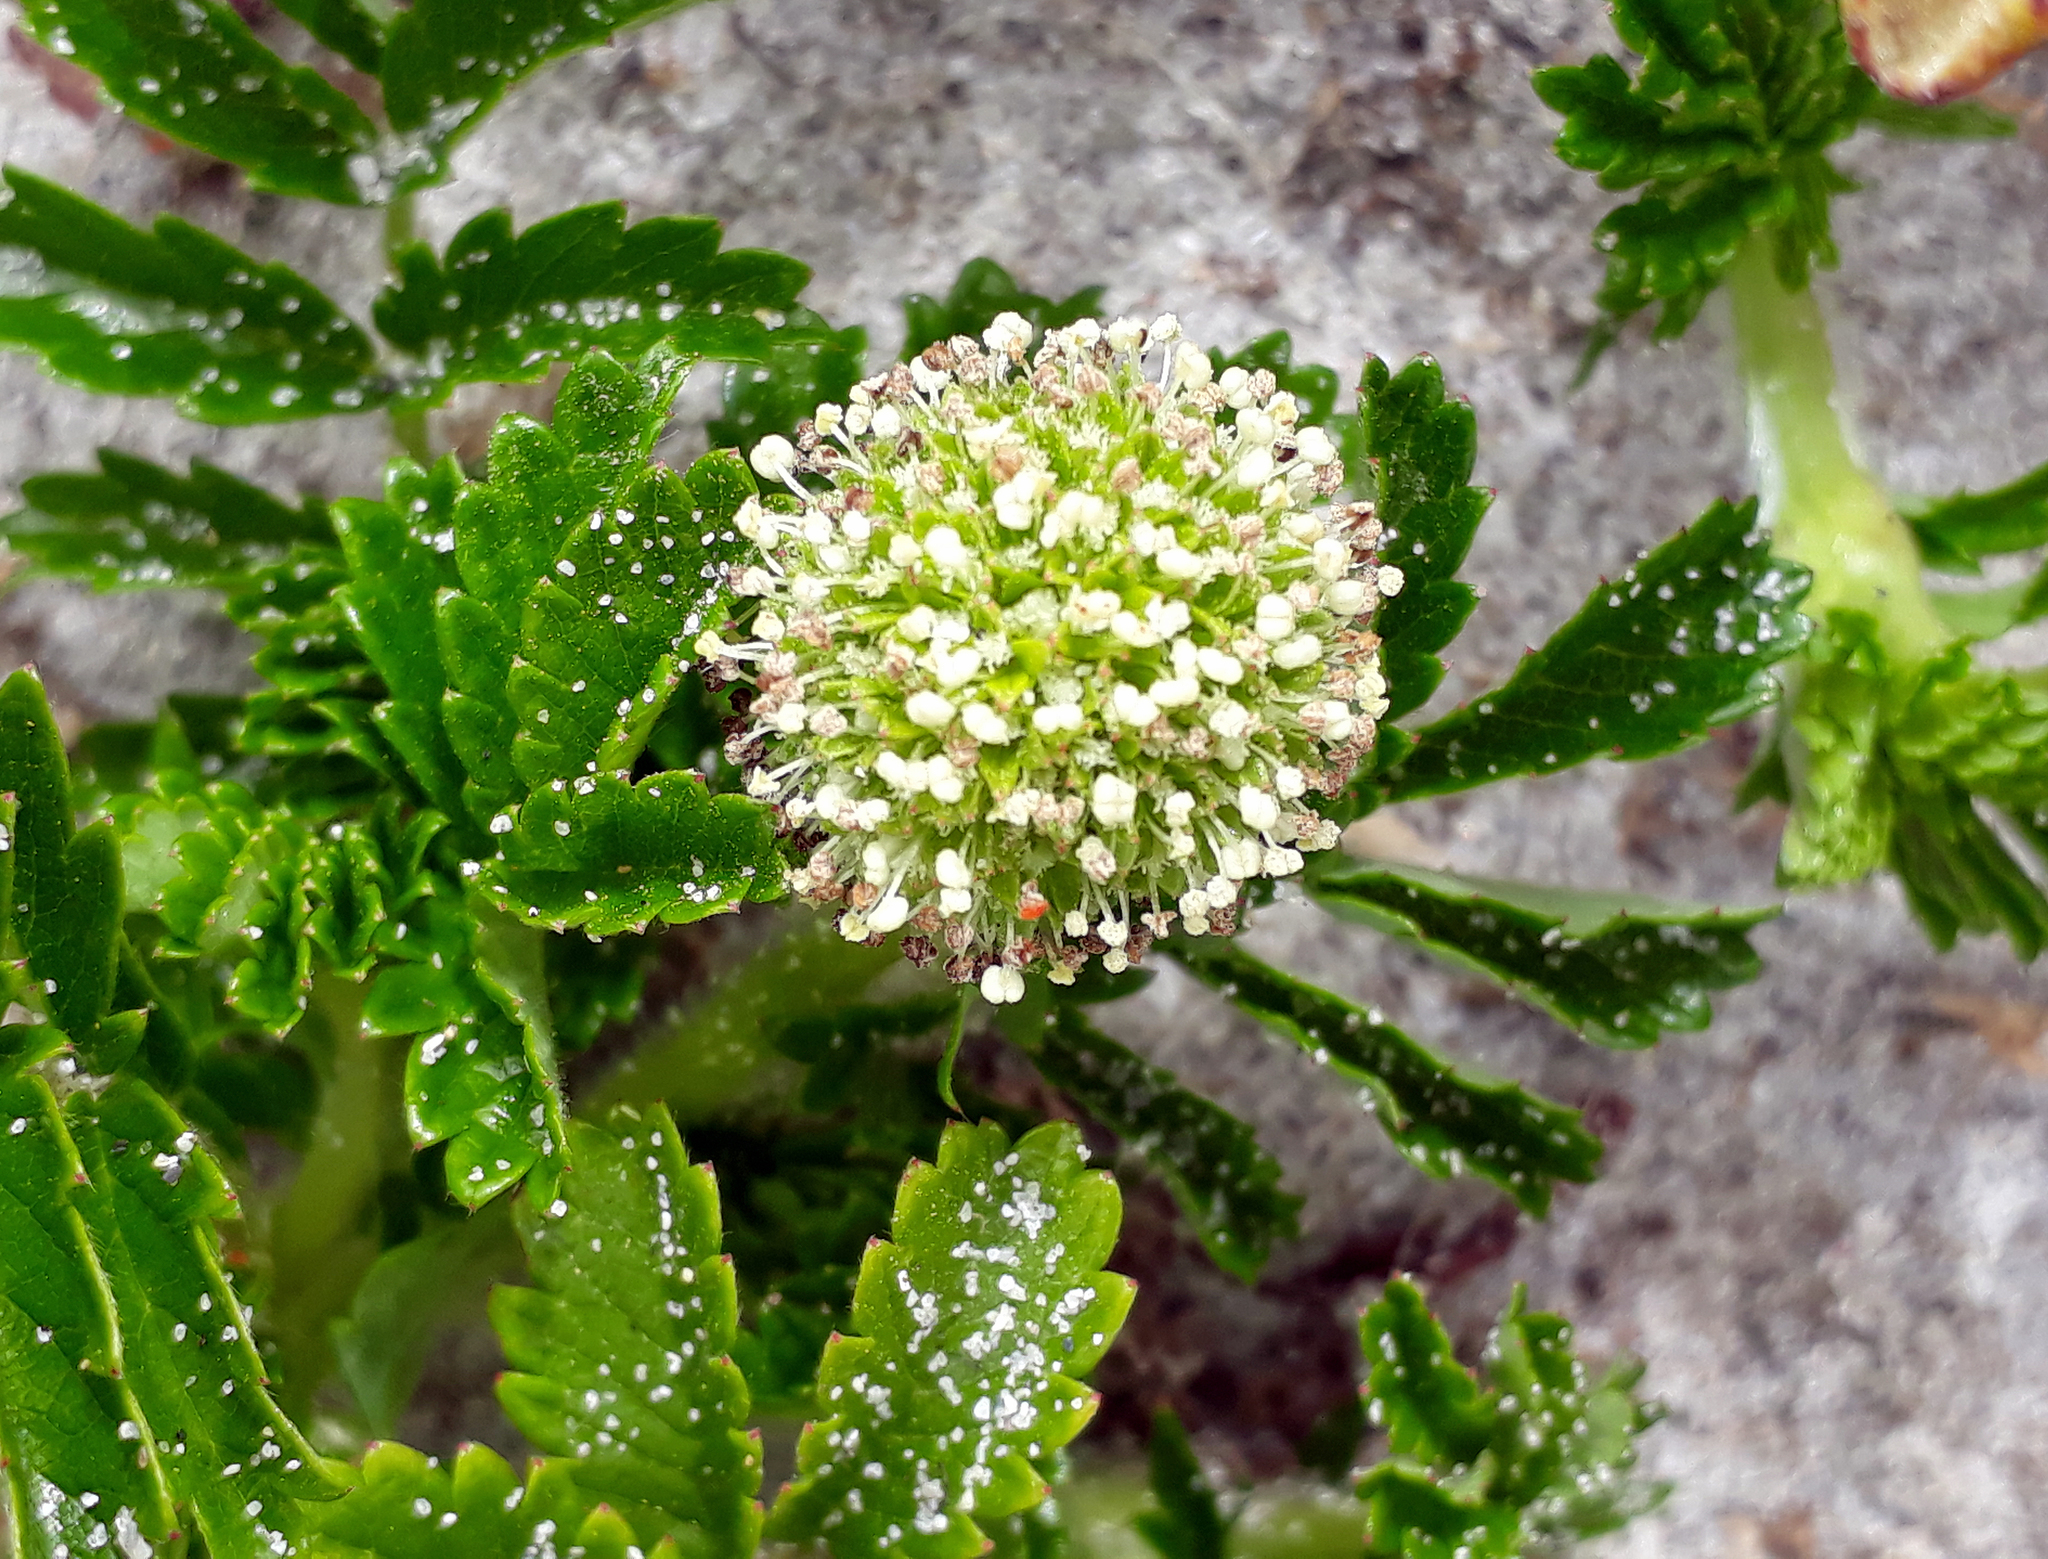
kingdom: Plantae
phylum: Tracheophyta
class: Magnoliopsida
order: Rosales
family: Rosaceae
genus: Acaena
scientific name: Acaena pallida
